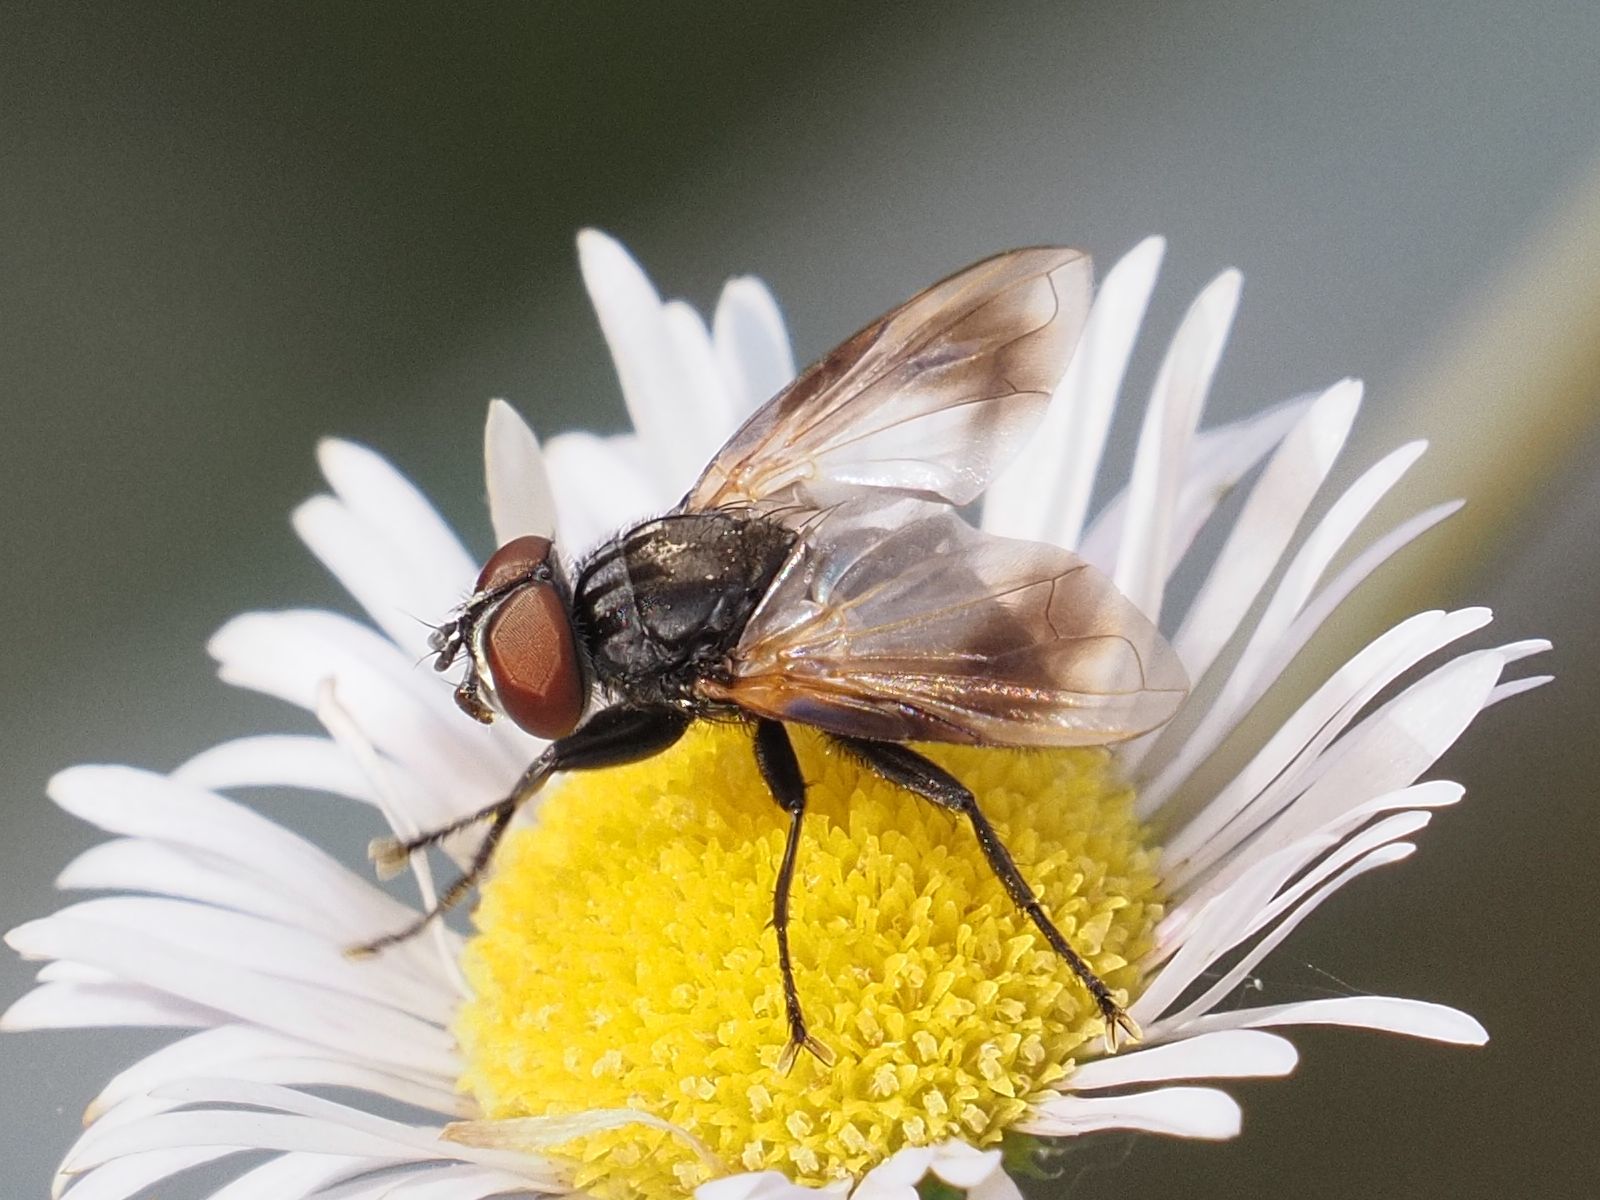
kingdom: Animalia
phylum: Arthropoda
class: Insecta
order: Diptera
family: Tachinidae
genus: Phasia
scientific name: Phasia obesa
